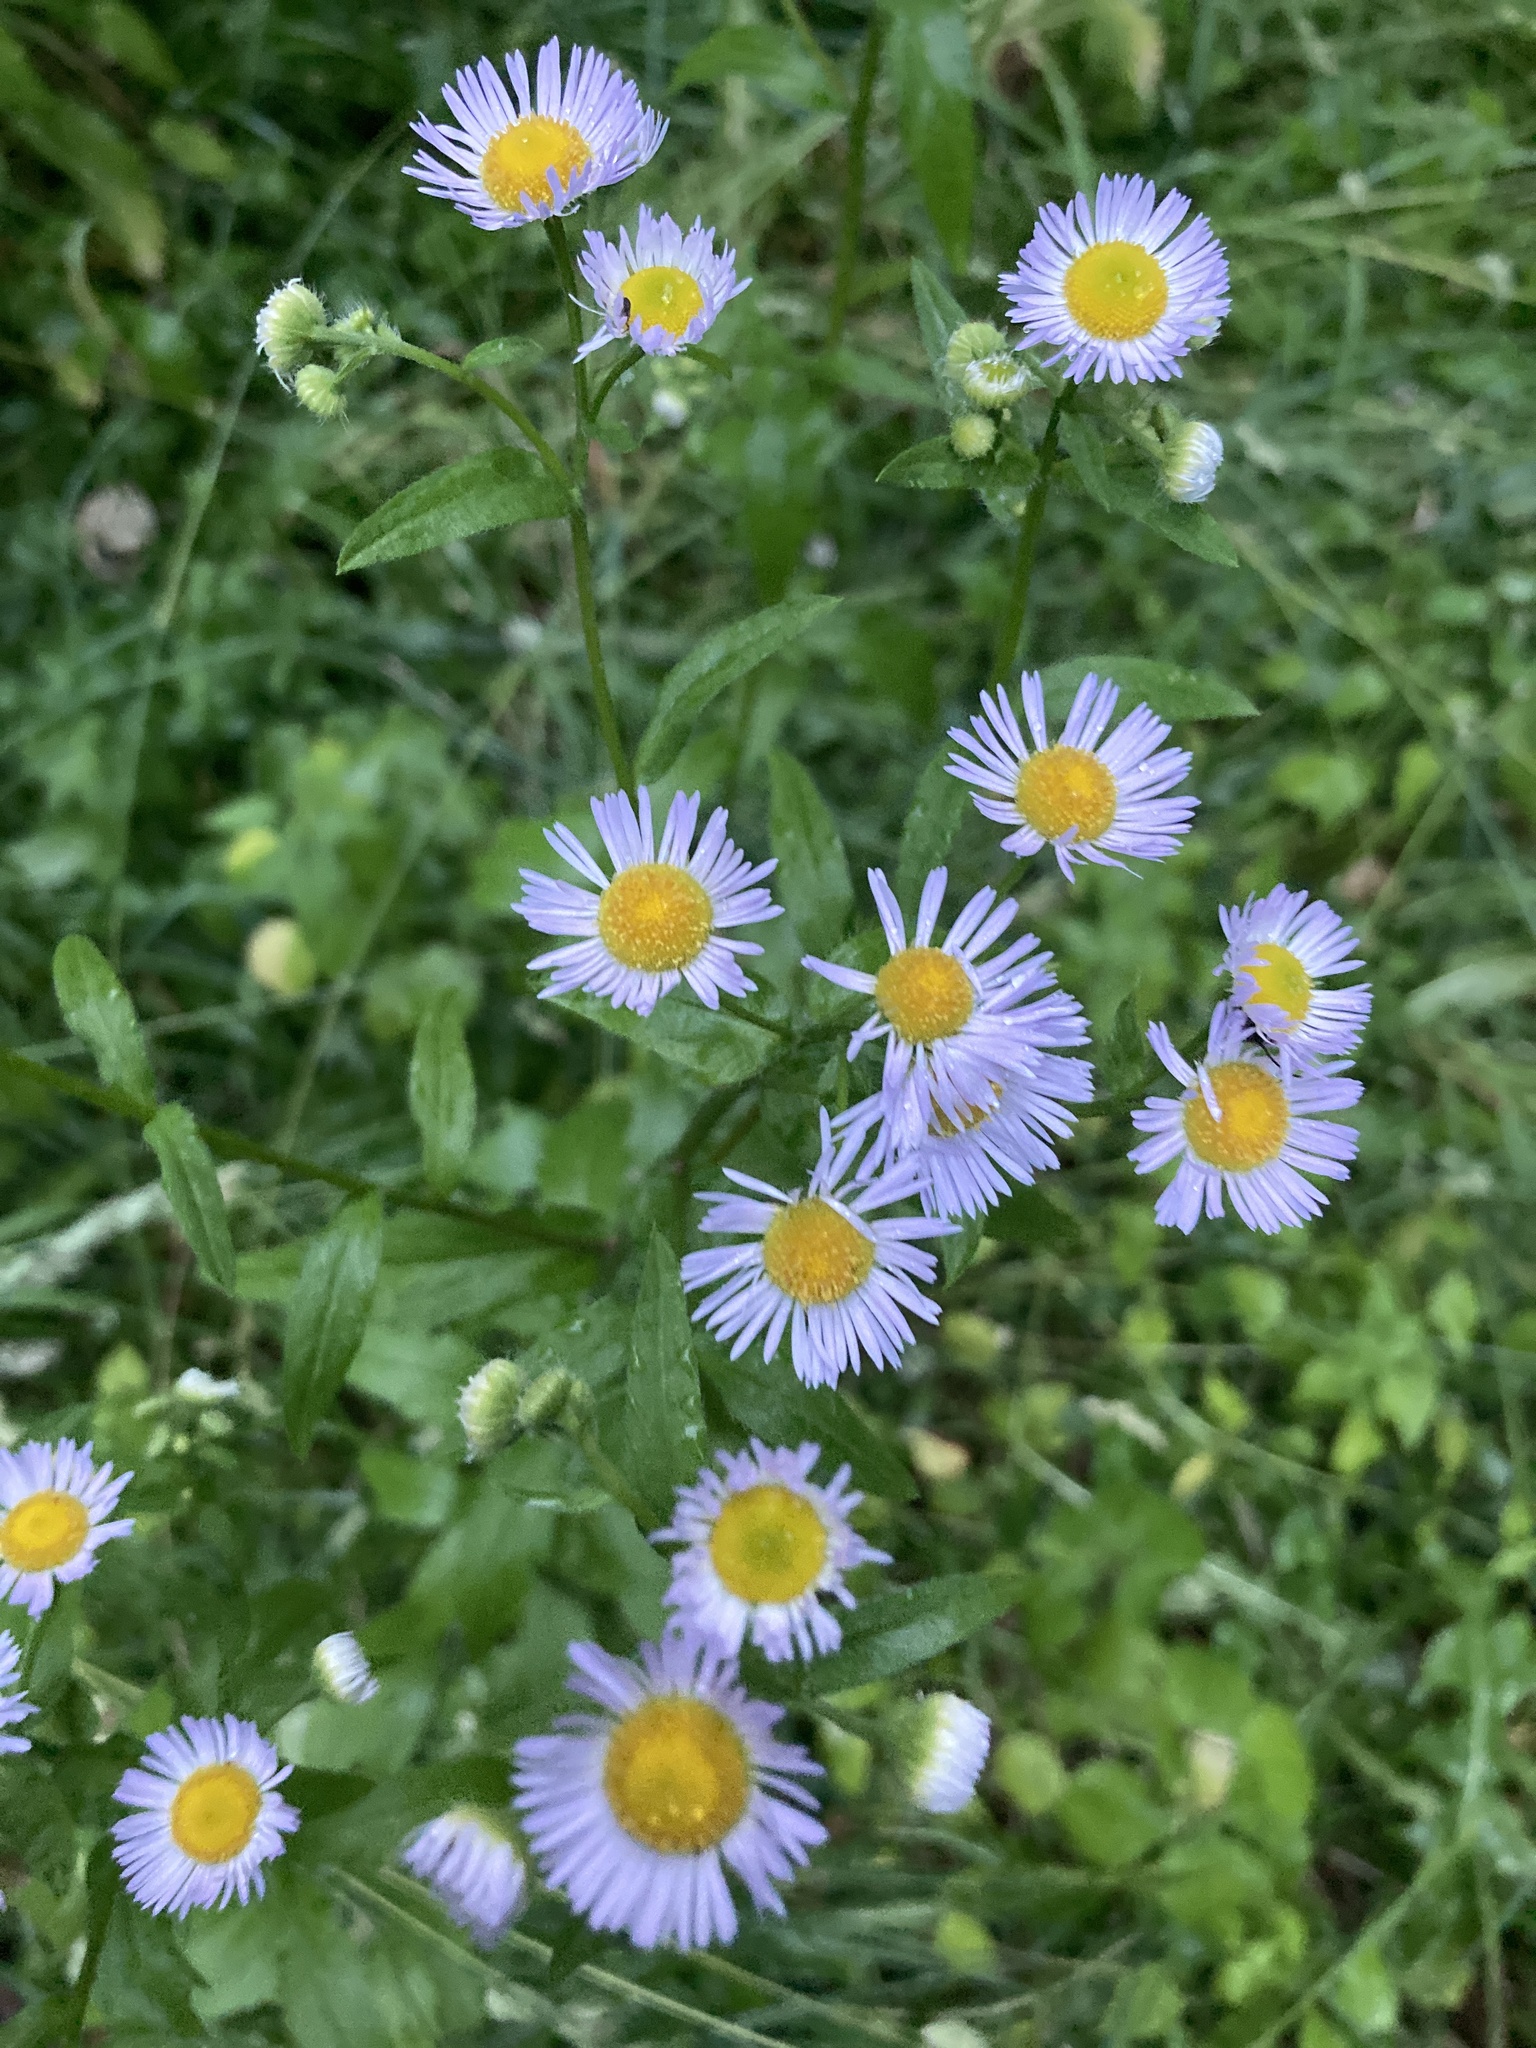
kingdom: Plantae
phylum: Tracheophyta
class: Magnoliopsida
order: Asterales
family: Asteraceae
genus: Erigeron
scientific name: Erigeron annuus
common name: Tall fleabane
